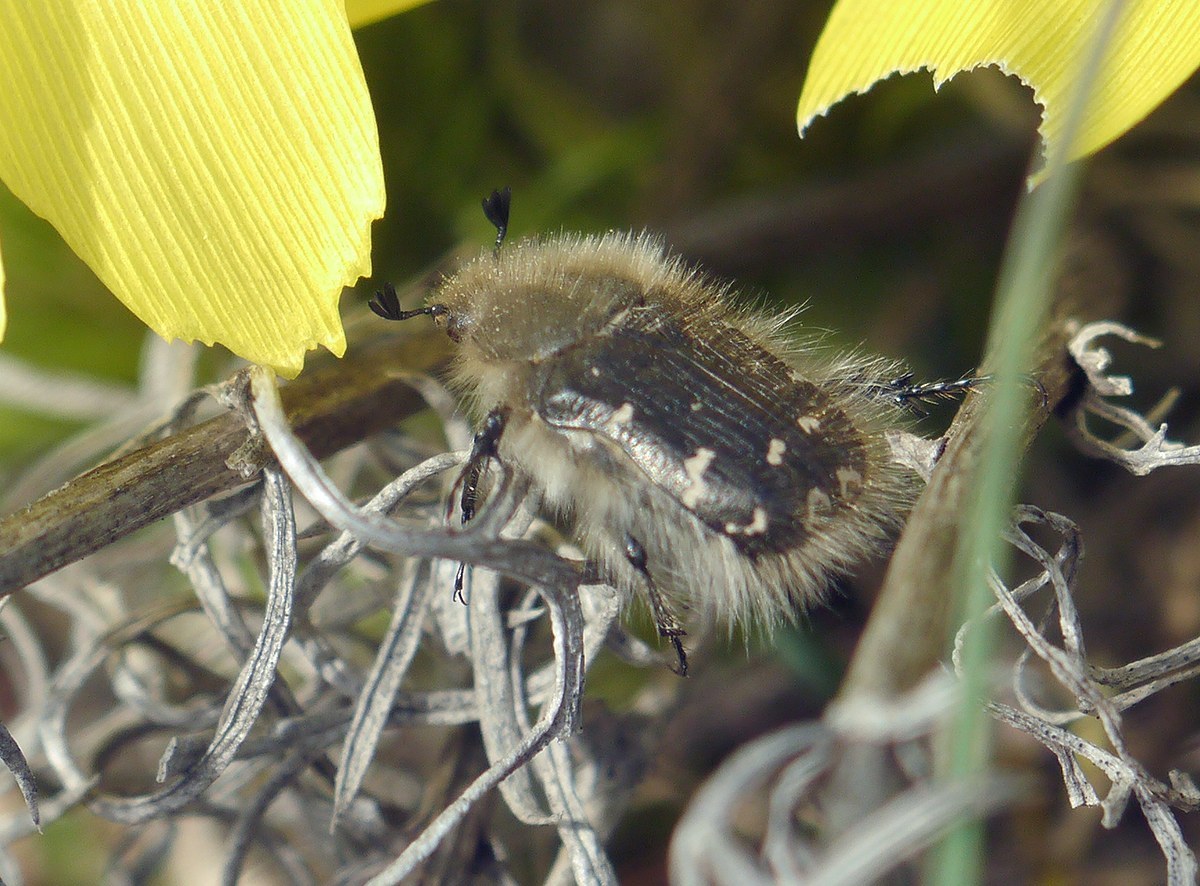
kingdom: Animalia
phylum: Arthropoda
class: Insecta
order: Coleoptera
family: Scarabaeidae
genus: Tropinota
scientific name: Tropinota hirta
